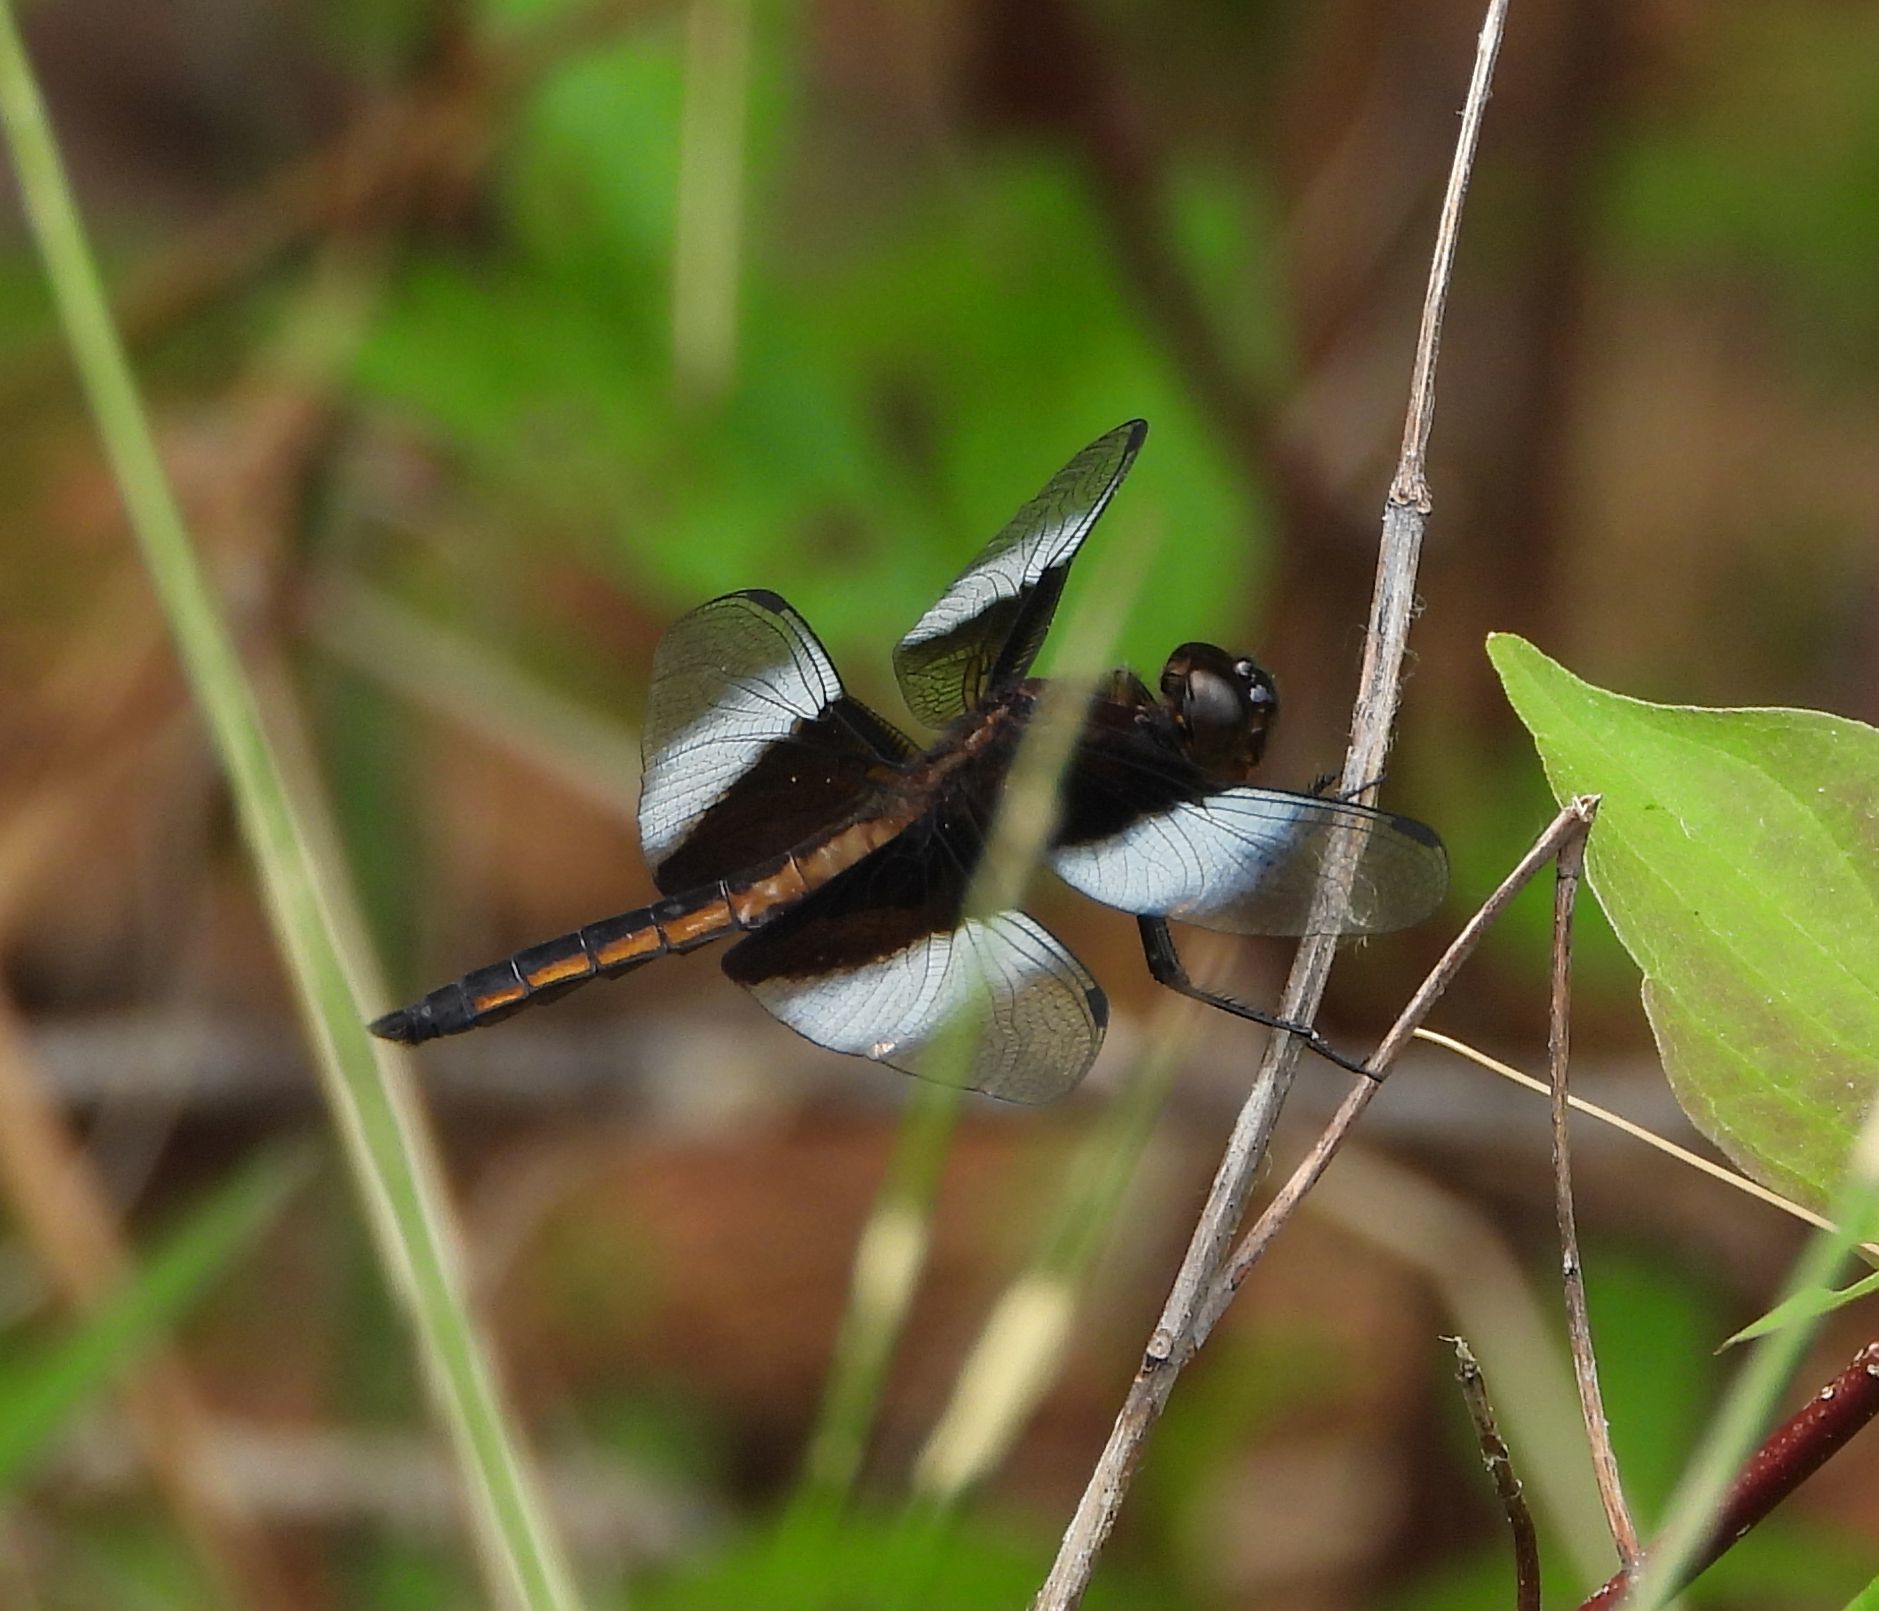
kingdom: Animalia
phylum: Arthropoda
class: Insecta
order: Odonata
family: Libellulidae
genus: Libellula
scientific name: Libellula luctuosa
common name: Widow skimmer
